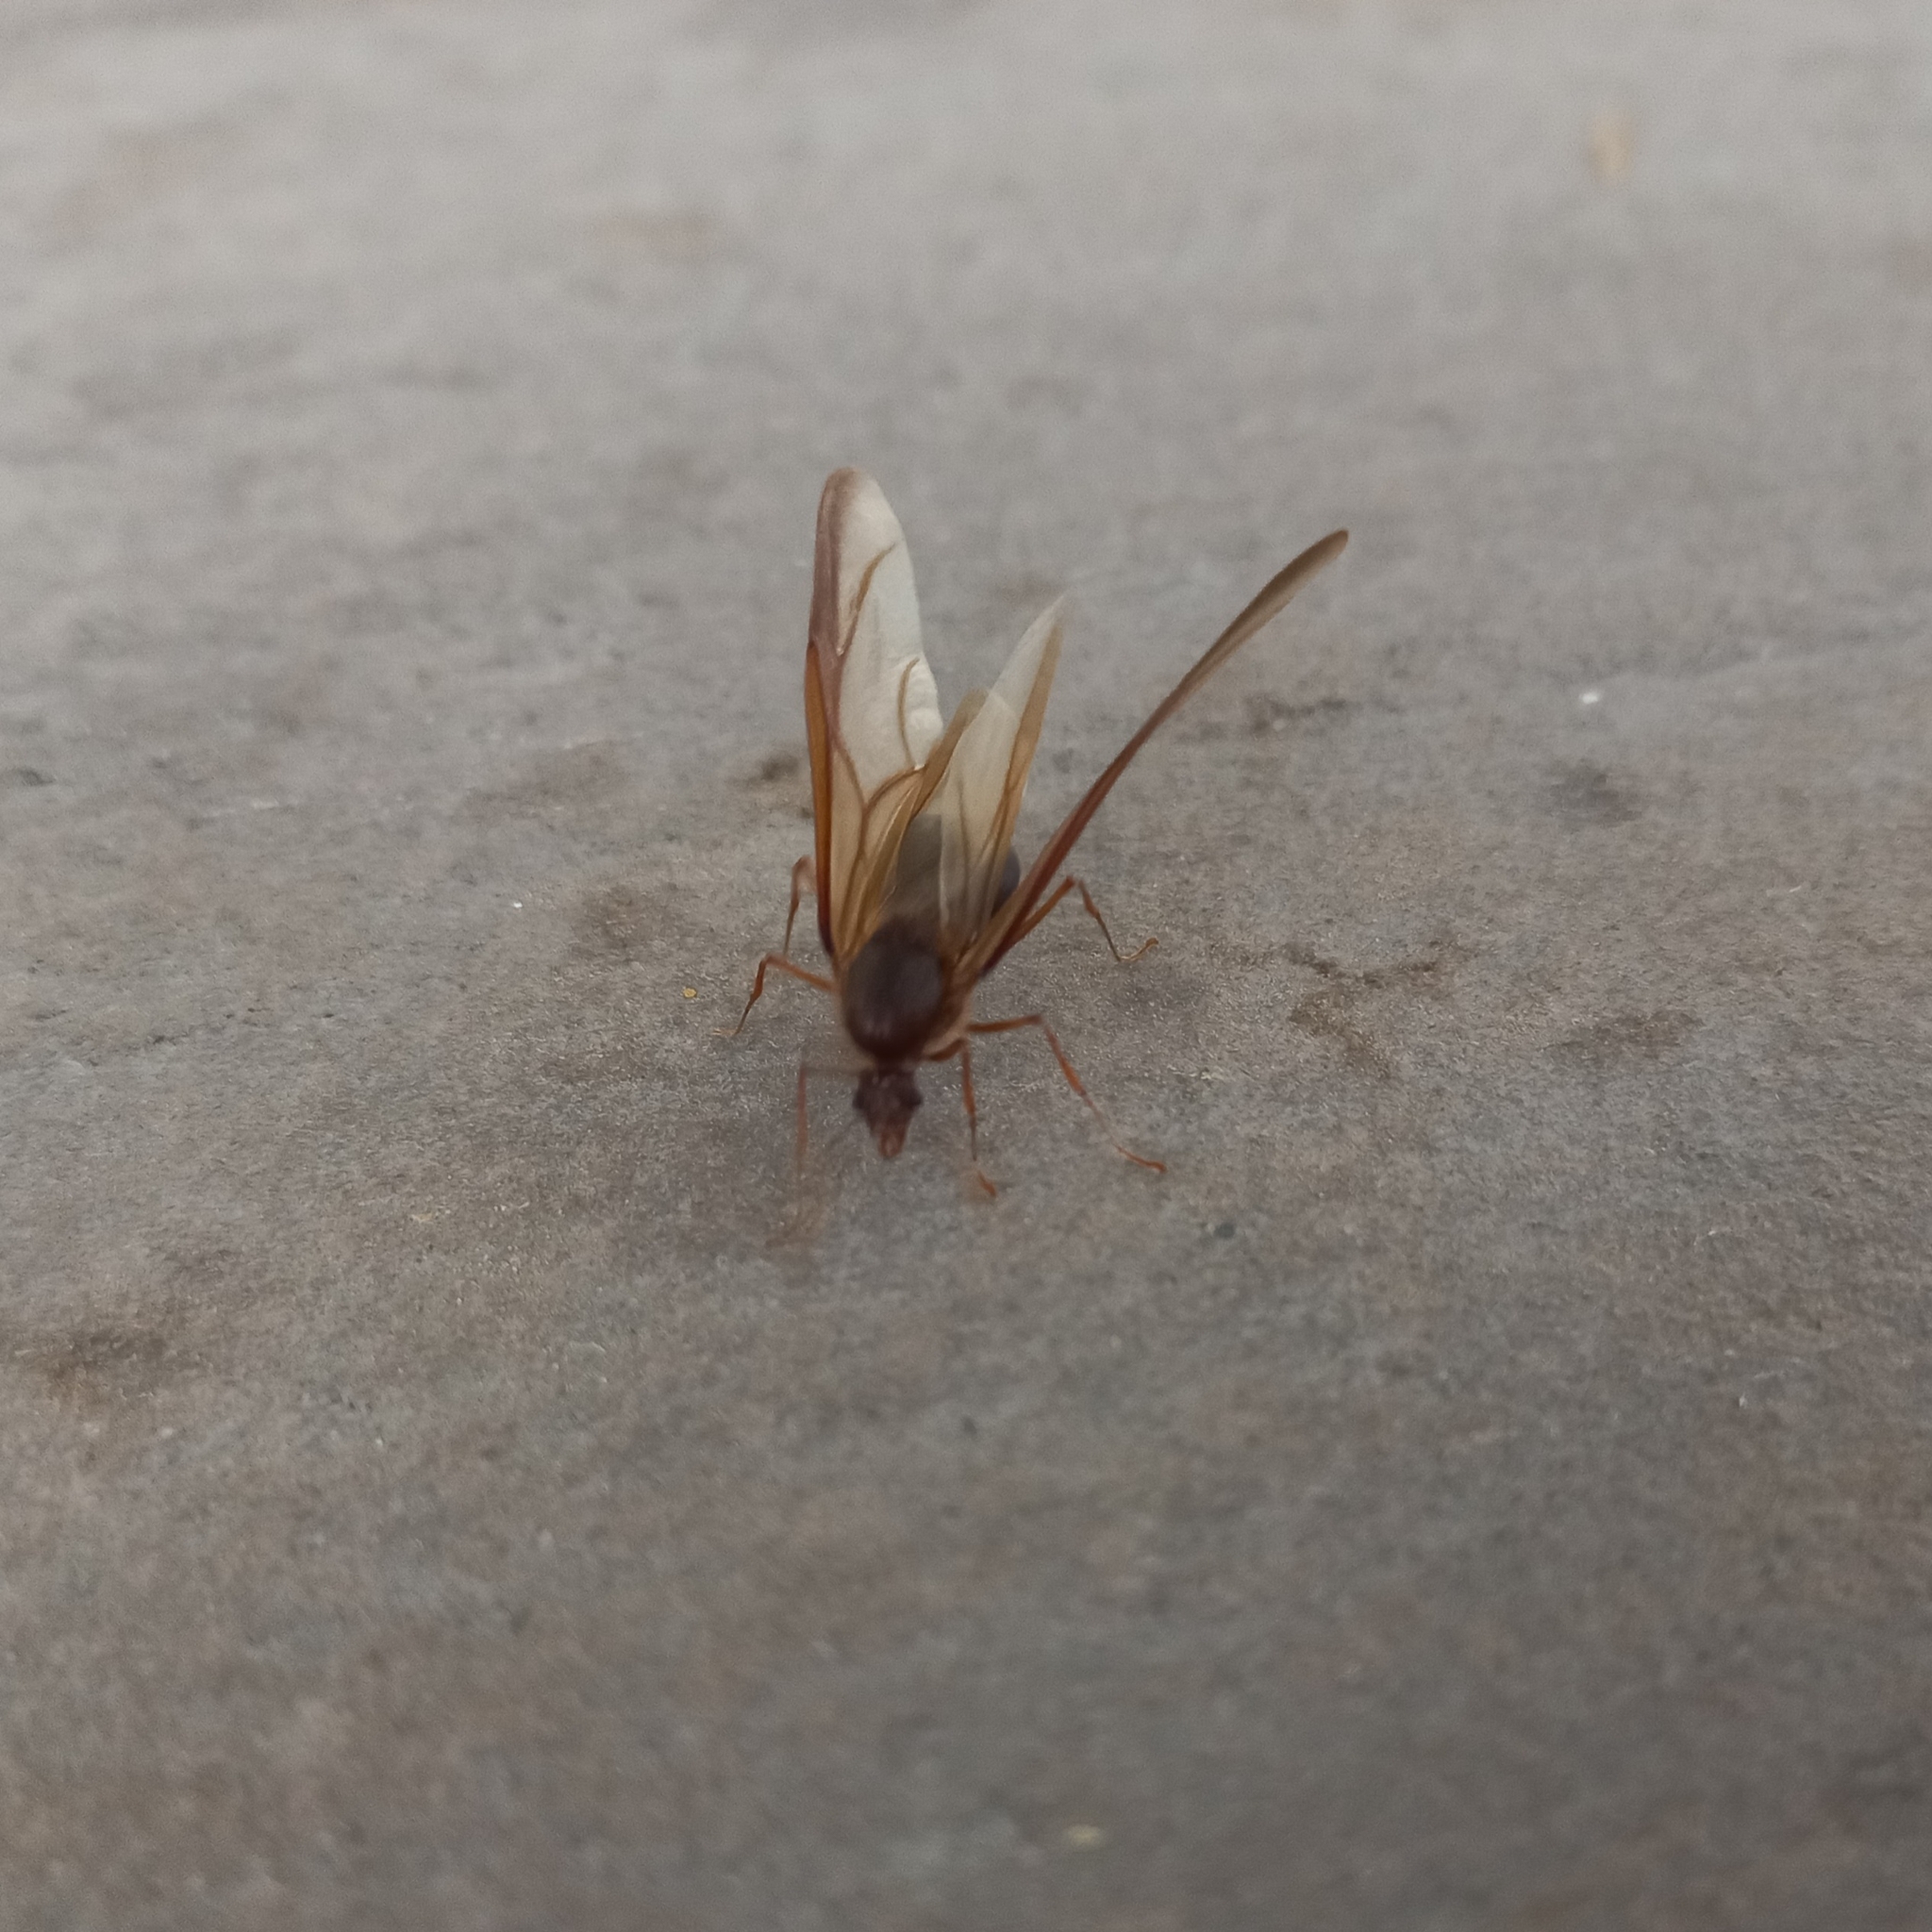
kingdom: Animalia
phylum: Arthropoda
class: Insecta
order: Hymenoptera
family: Formicidae
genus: Atta
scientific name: Atta mexicana
